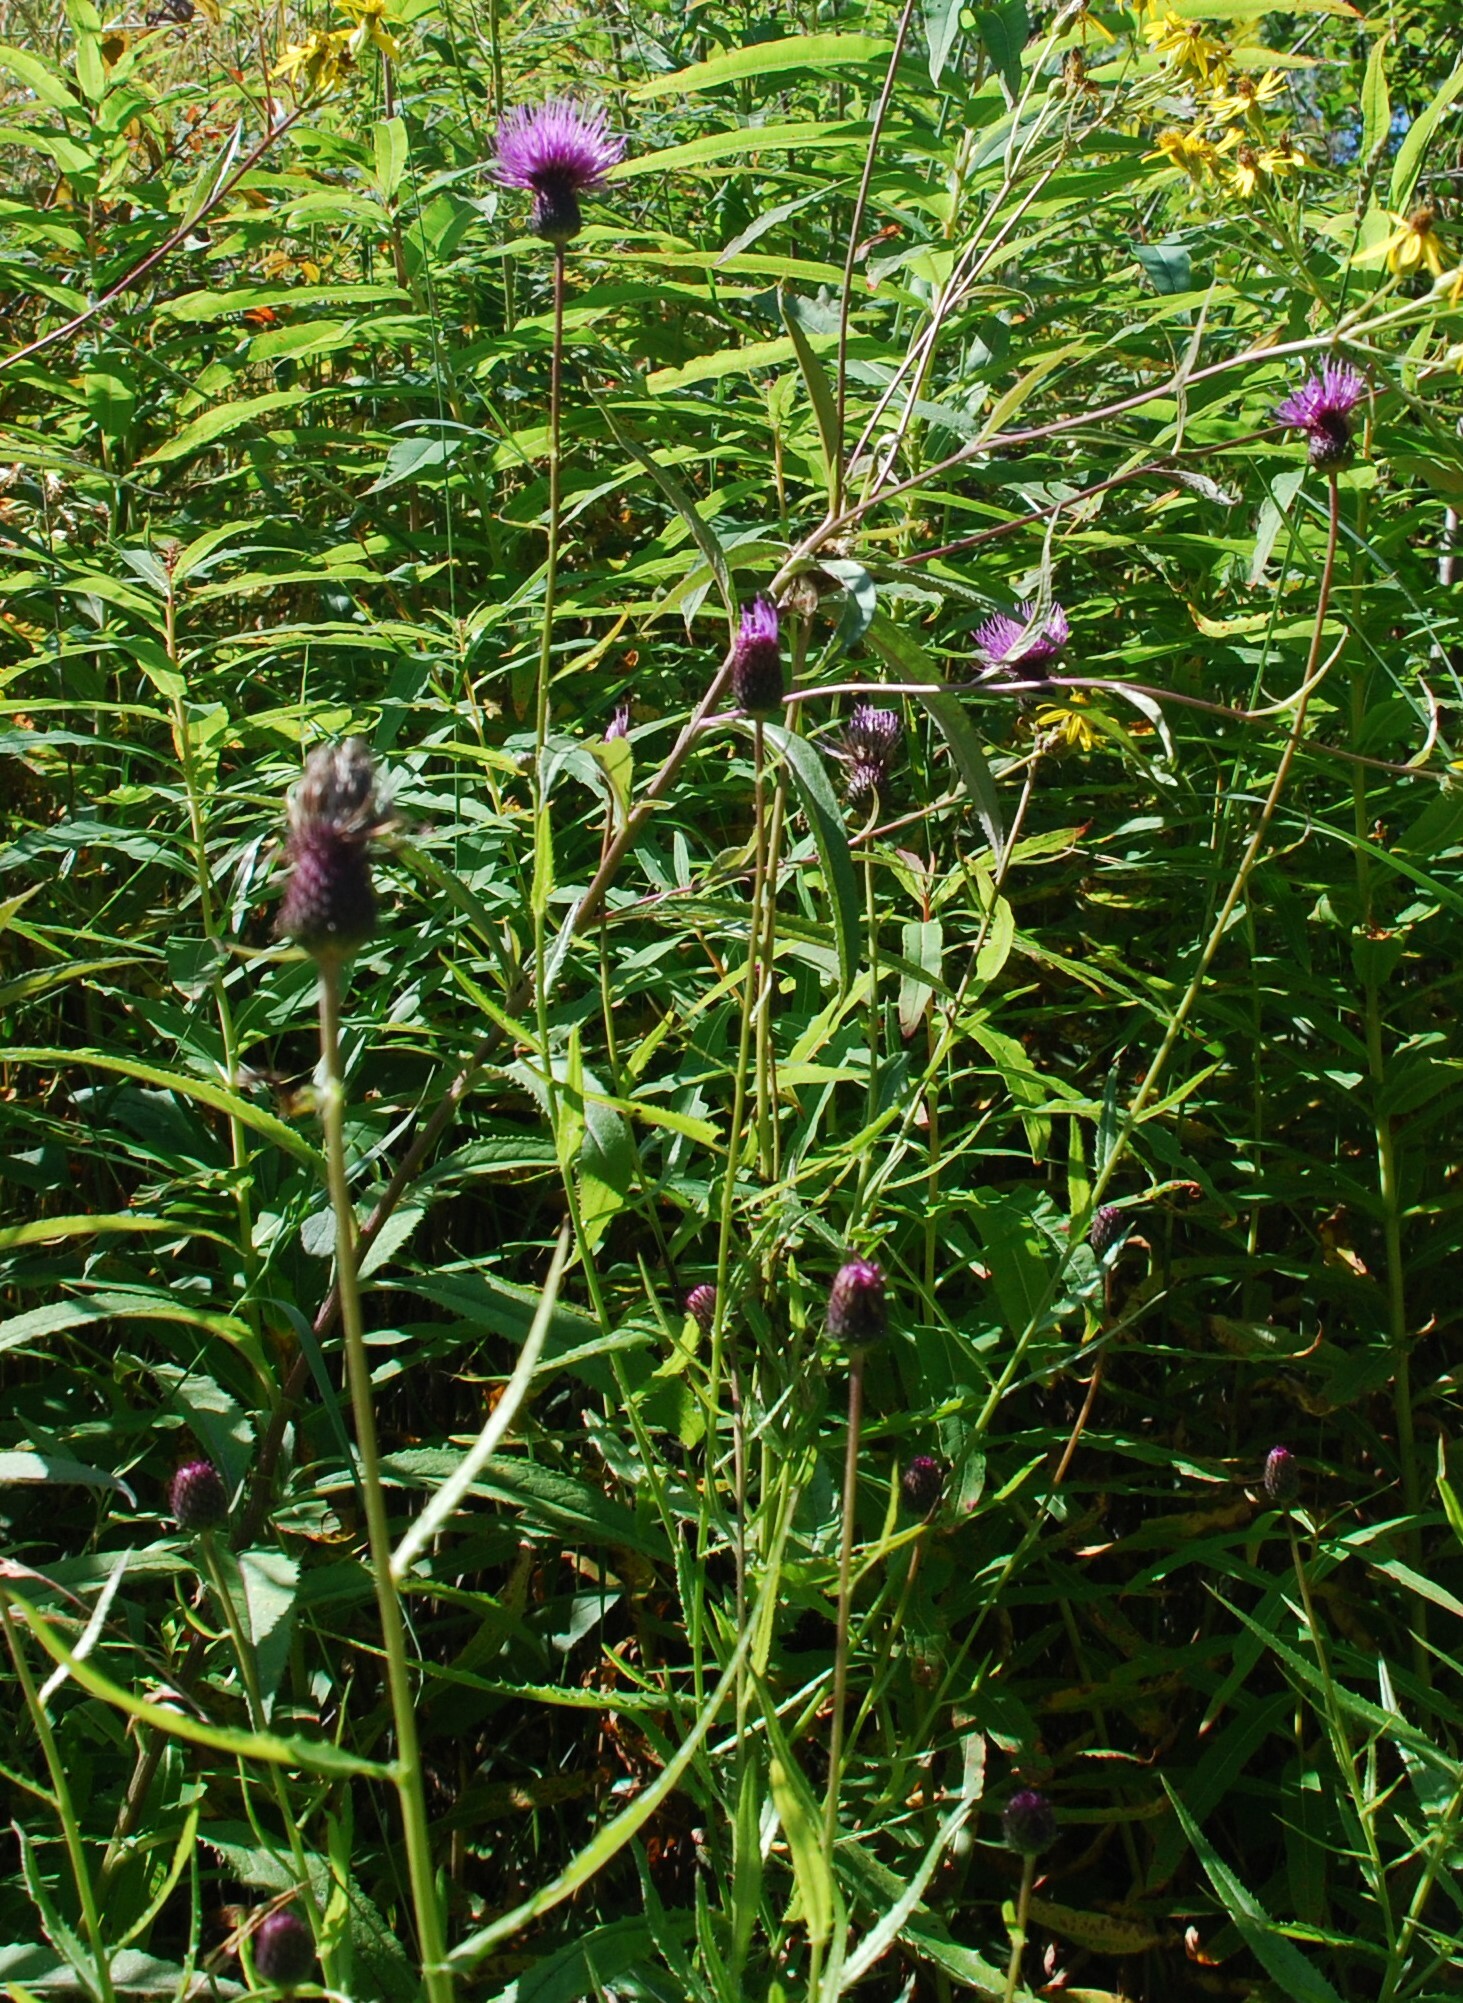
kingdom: Plantae
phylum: Tracheophyta
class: Magnoliopsida
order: Asterales
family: Asteraceae
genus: Cirsium
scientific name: Cirsium serratuloides
